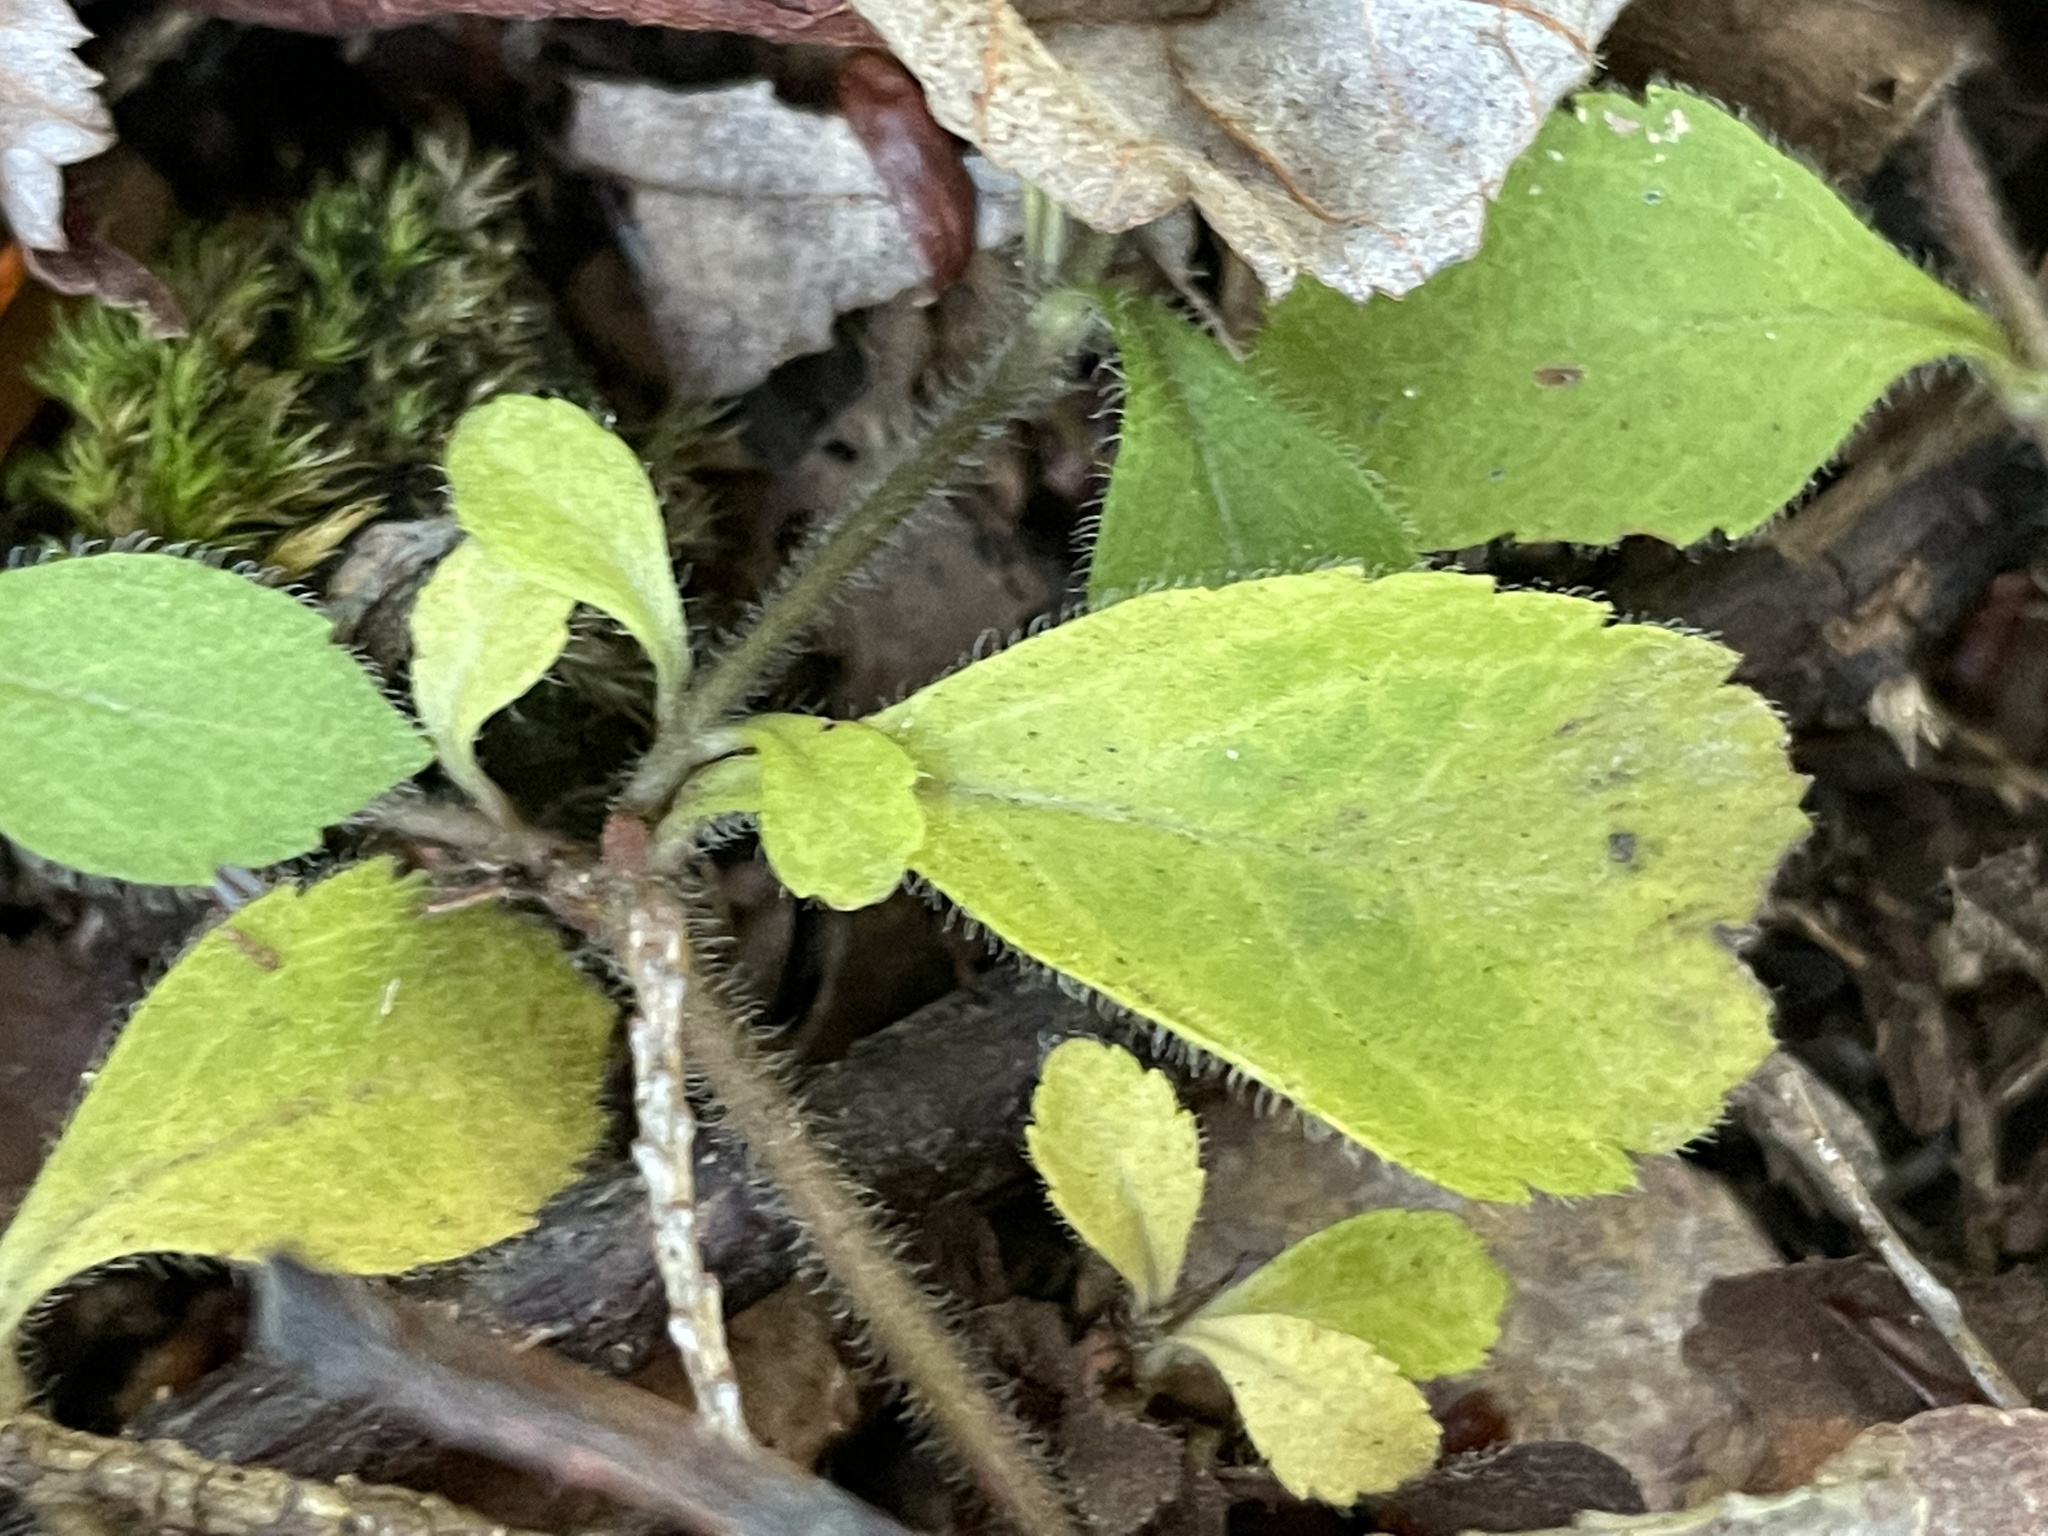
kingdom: Plantae
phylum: Tracheophyta
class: Magnoliopsida
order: Lamiales
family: Plantaginaceae
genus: Veronica
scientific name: Veronica officinalis
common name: Common speedwell
